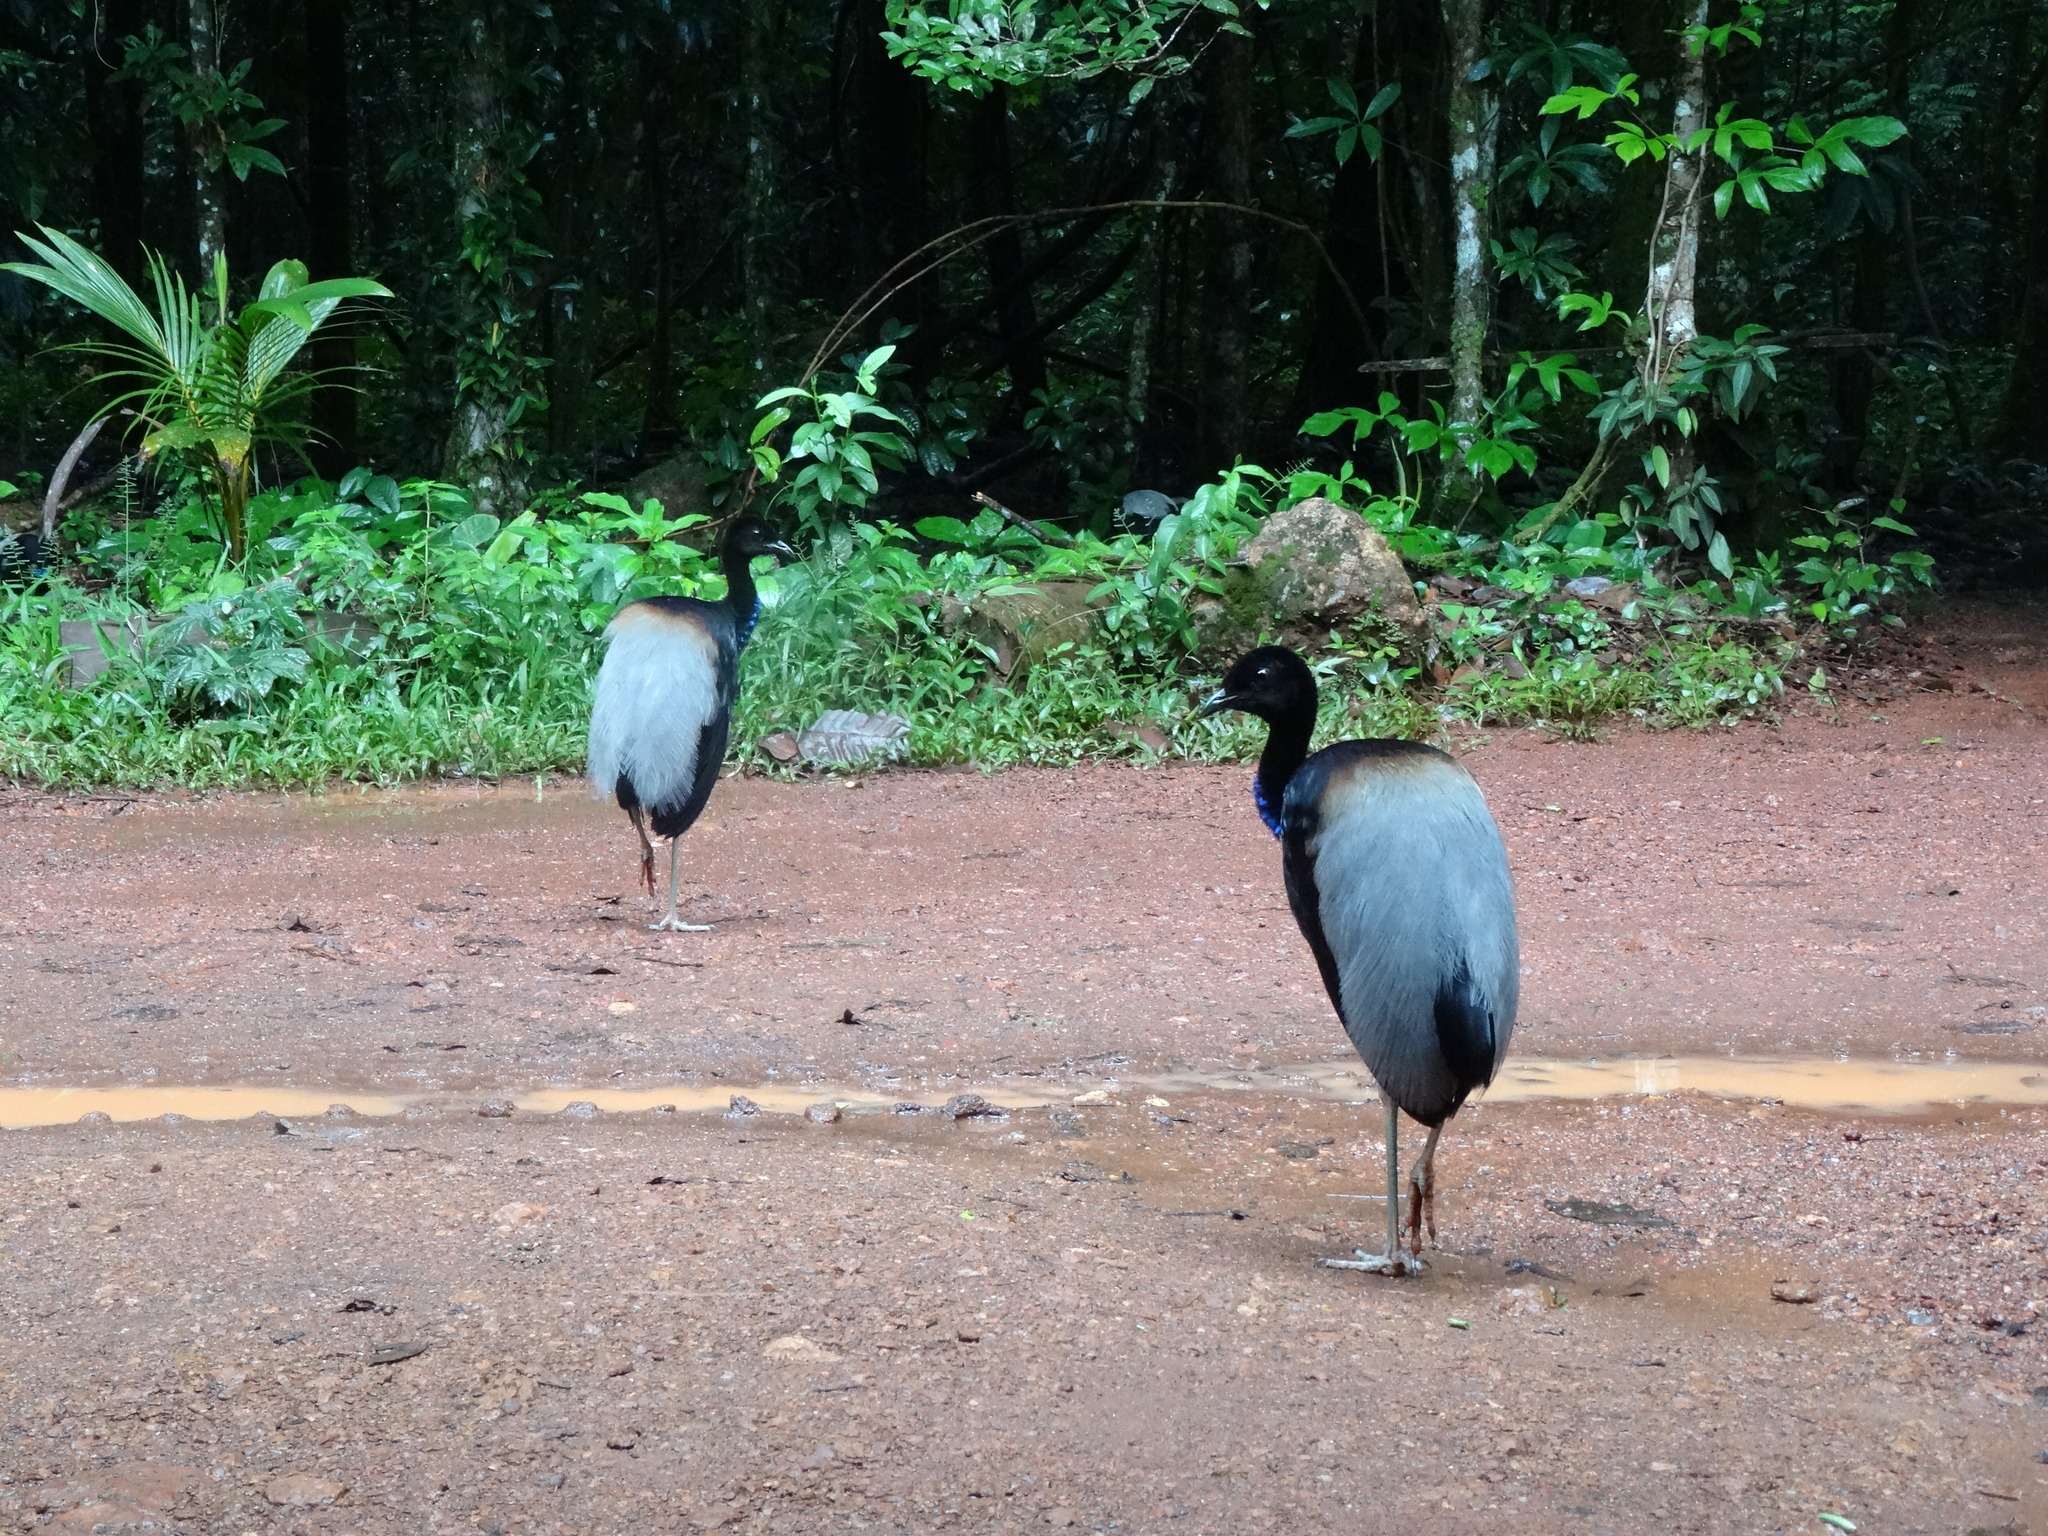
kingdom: Animalia
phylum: Chordata
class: Aves
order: Gruiformes
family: Psophiidae
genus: Psophia
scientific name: Psophia crepitans
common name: Grey-winged trumpeter
